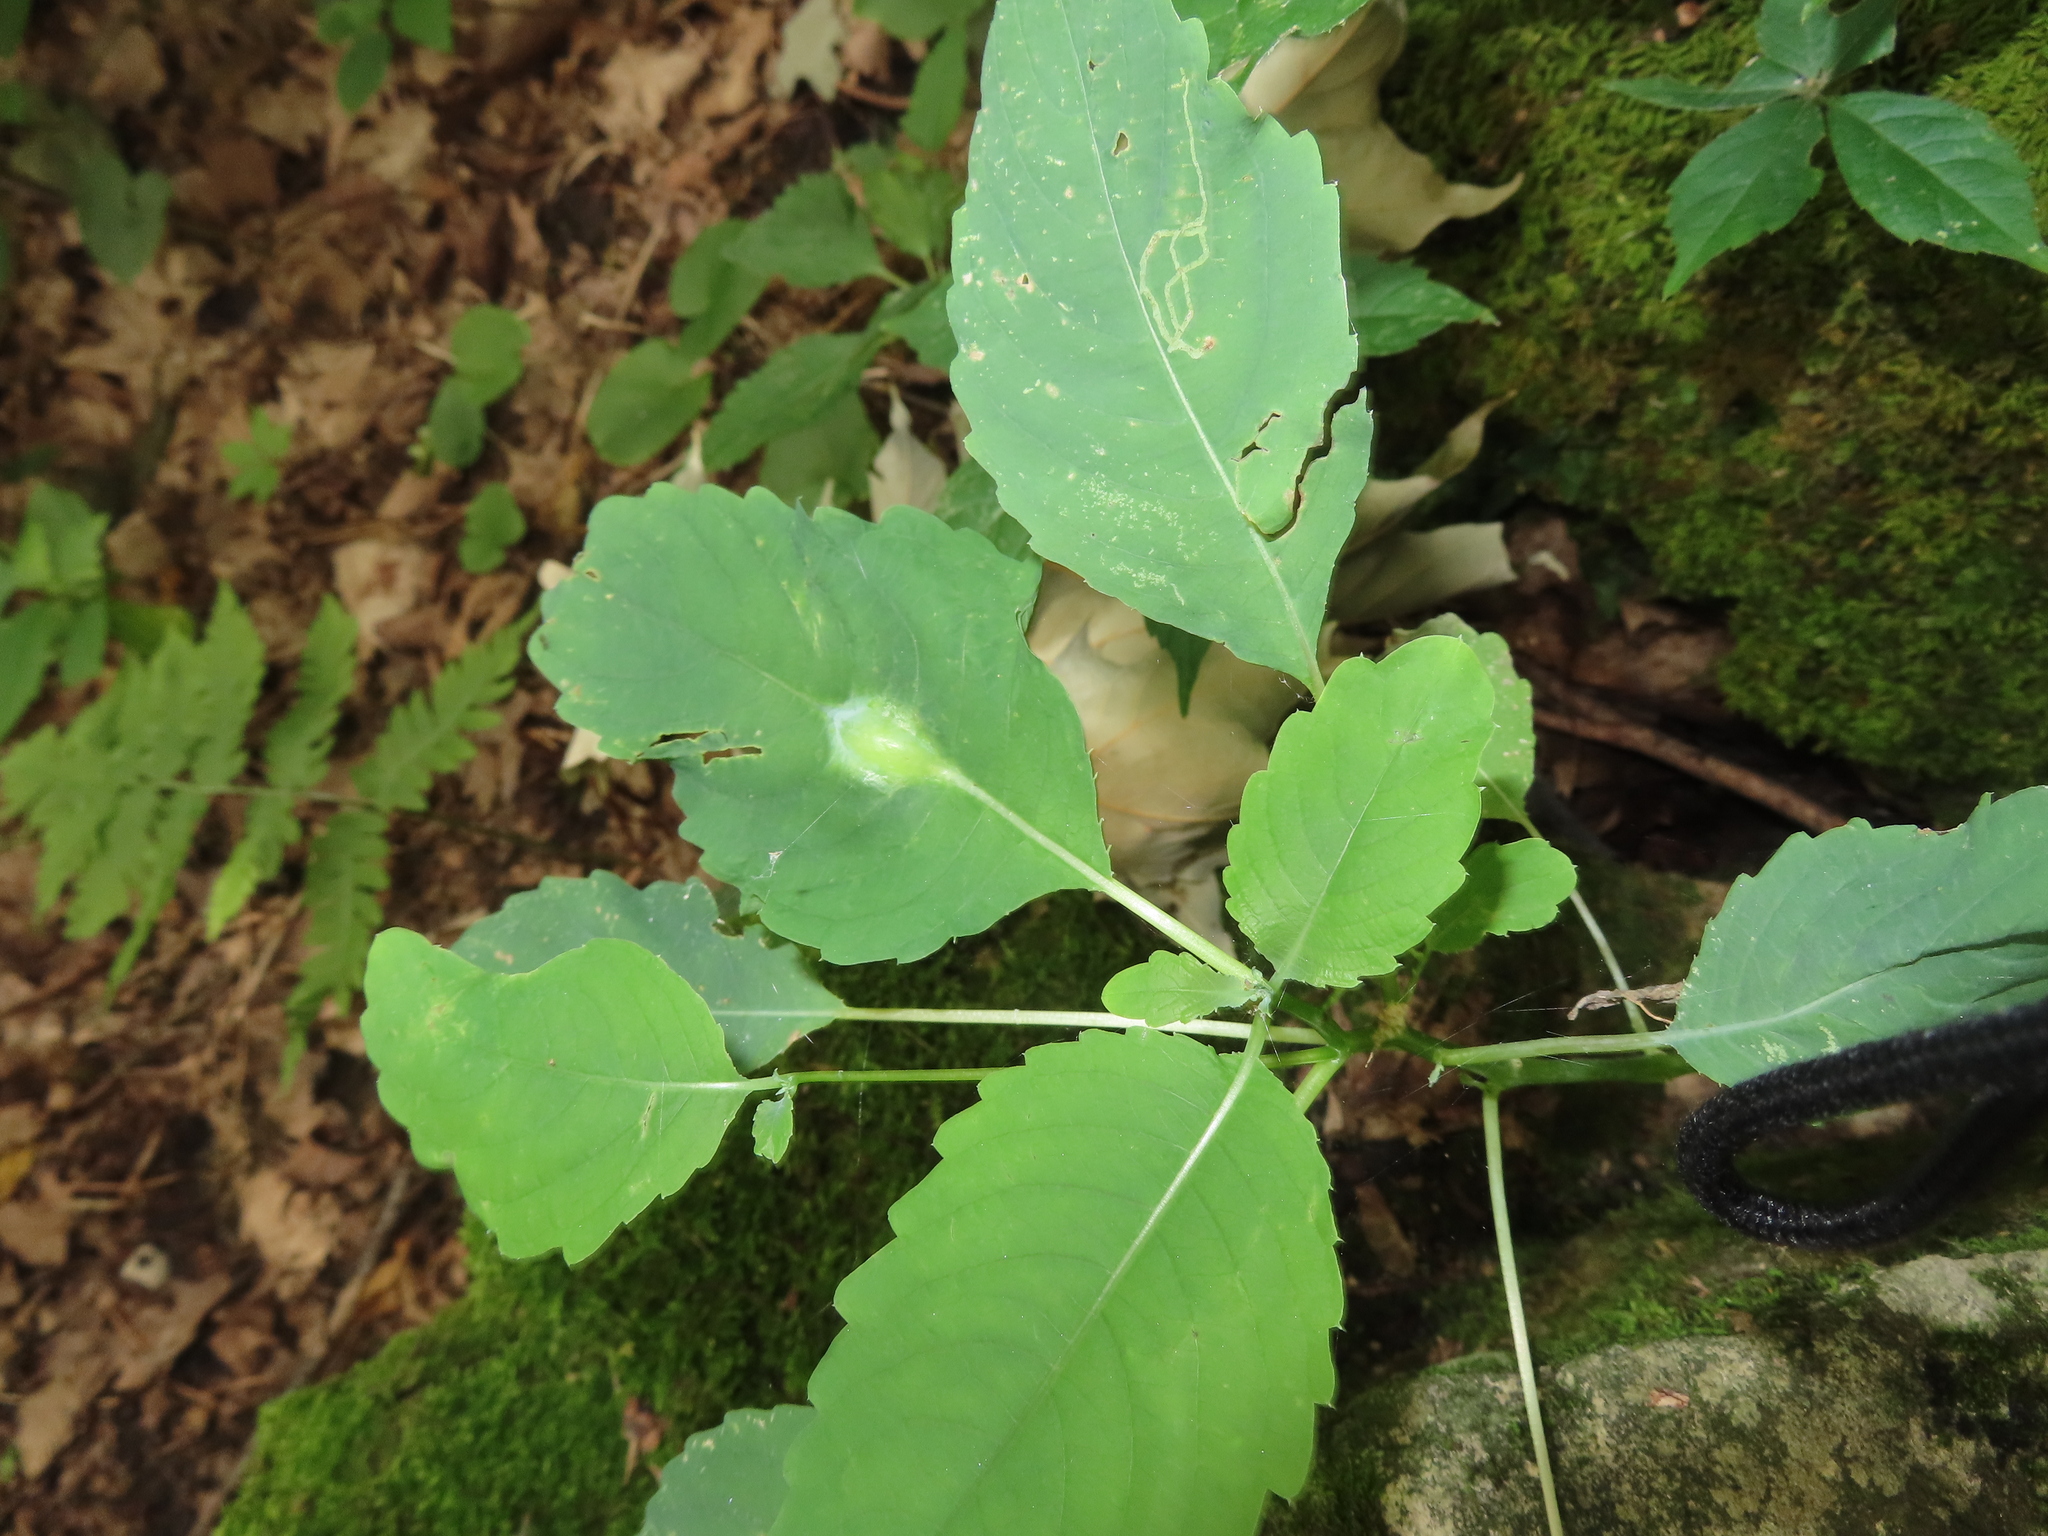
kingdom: Animalia
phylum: Arthropoda
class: Insecta
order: Diptera
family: Agromyzidae
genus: Phytoliriomyza
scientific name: Phytoliriomyza melampyga
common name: Jewelweed leaf-miner fly
